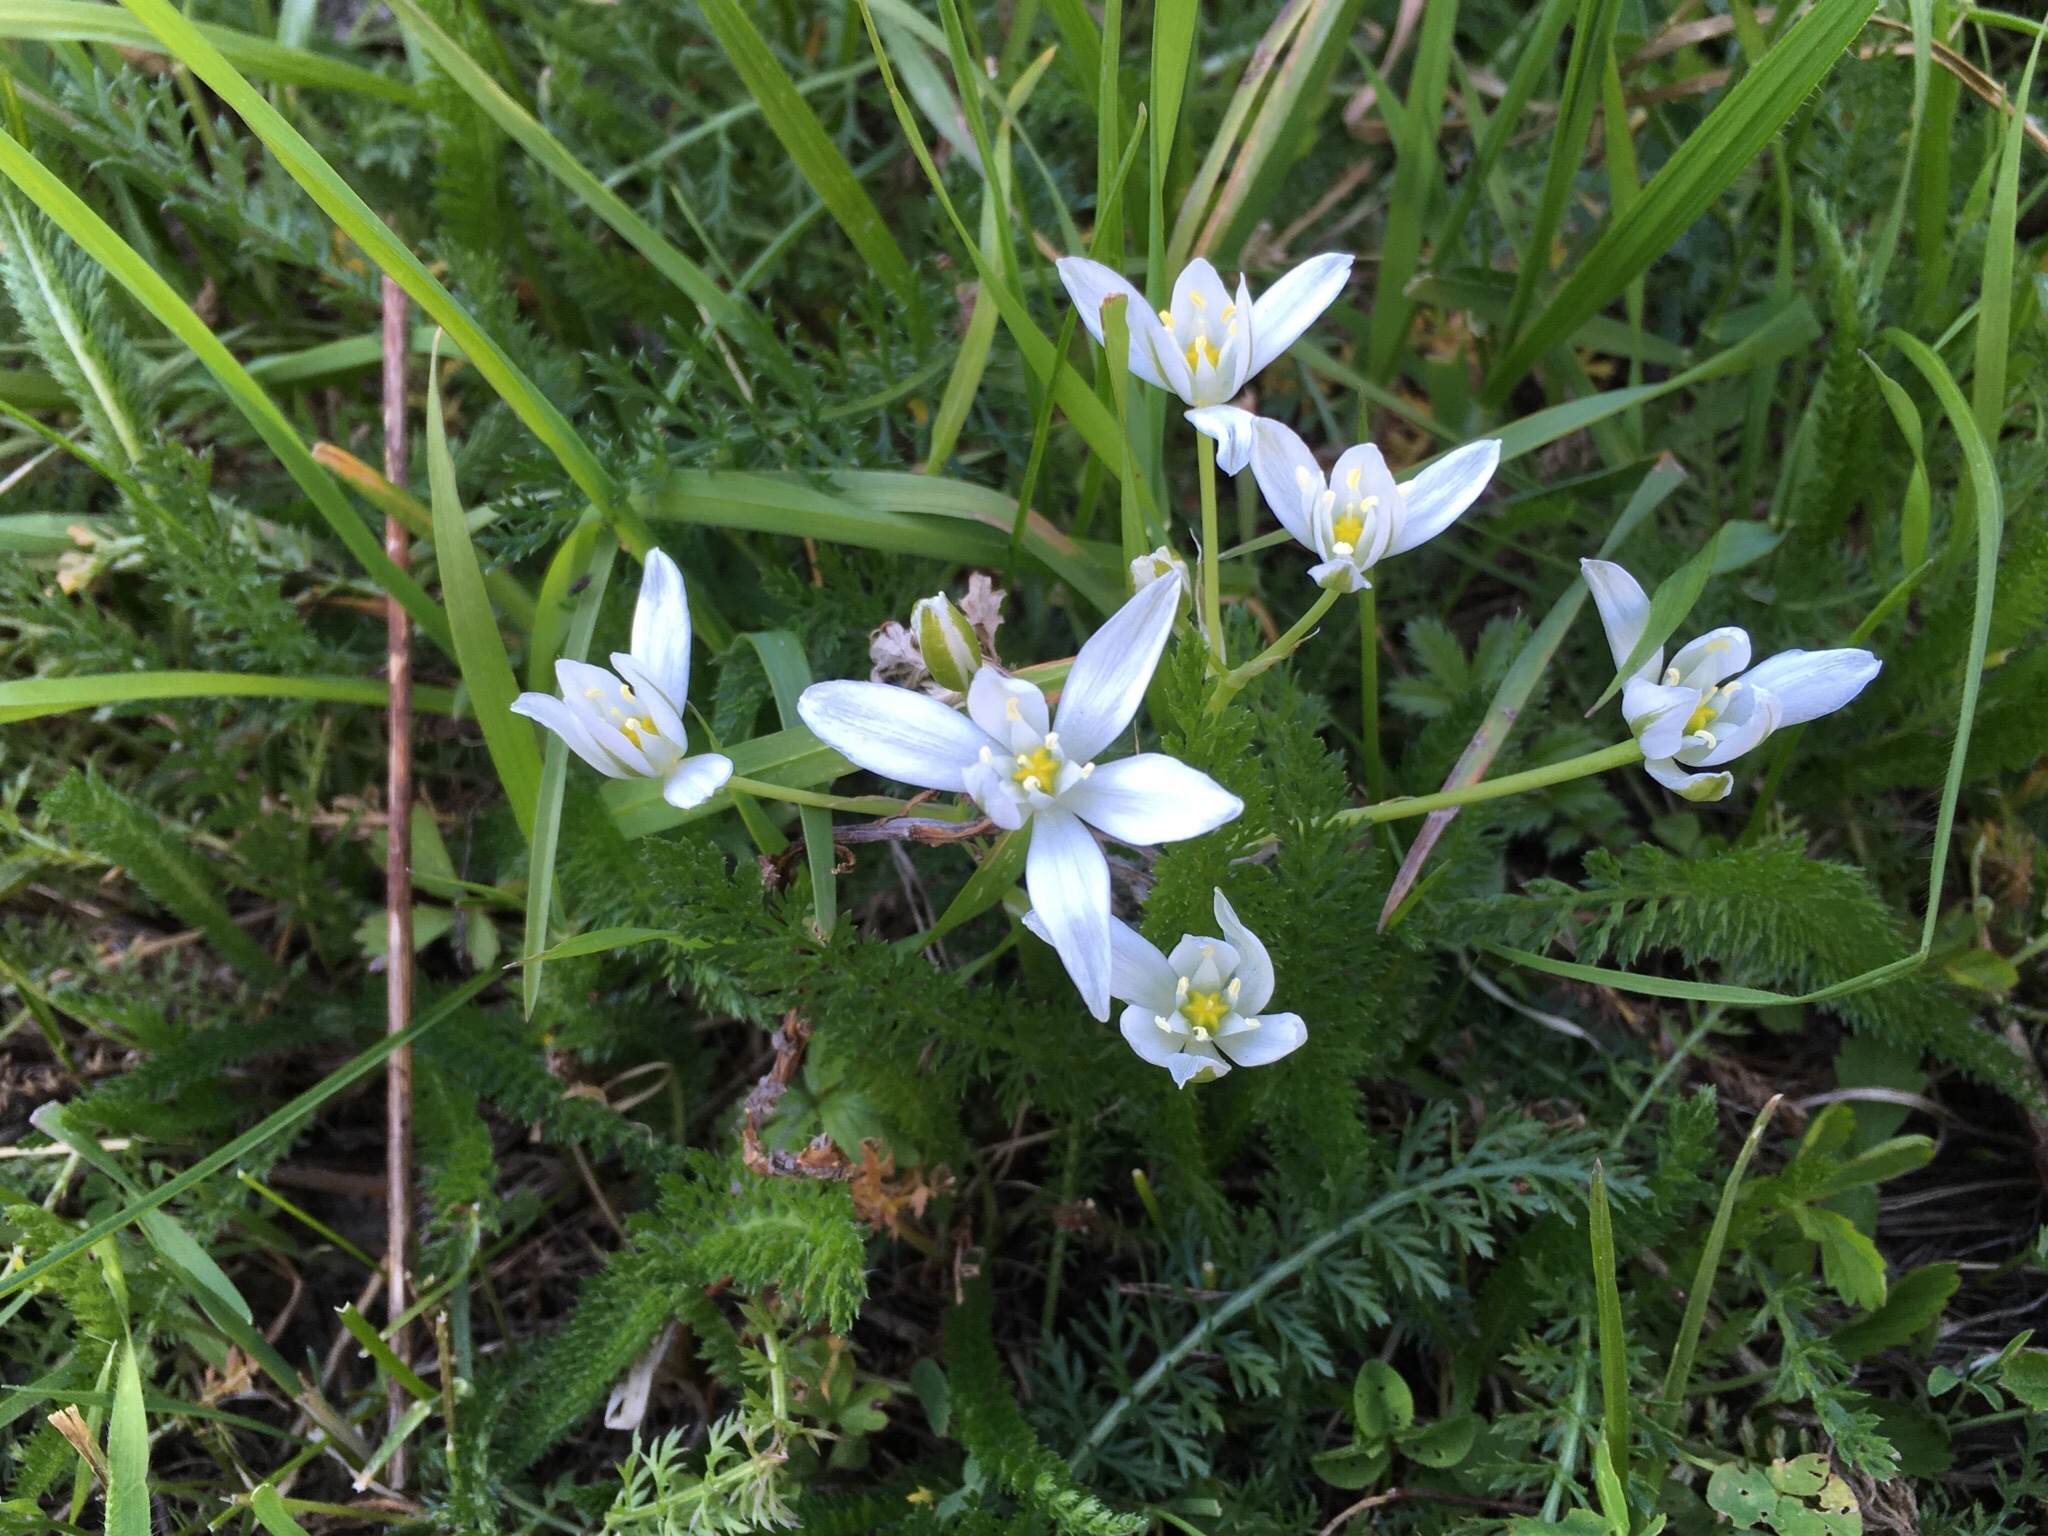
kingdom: Plantae
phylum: Tracheophyta
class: Liliopsida
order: Asparagales
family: Asparagaceae
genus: Ornithogalum
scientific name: Ornithogalum umbellatum
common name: Garden star-of-bethlehem
